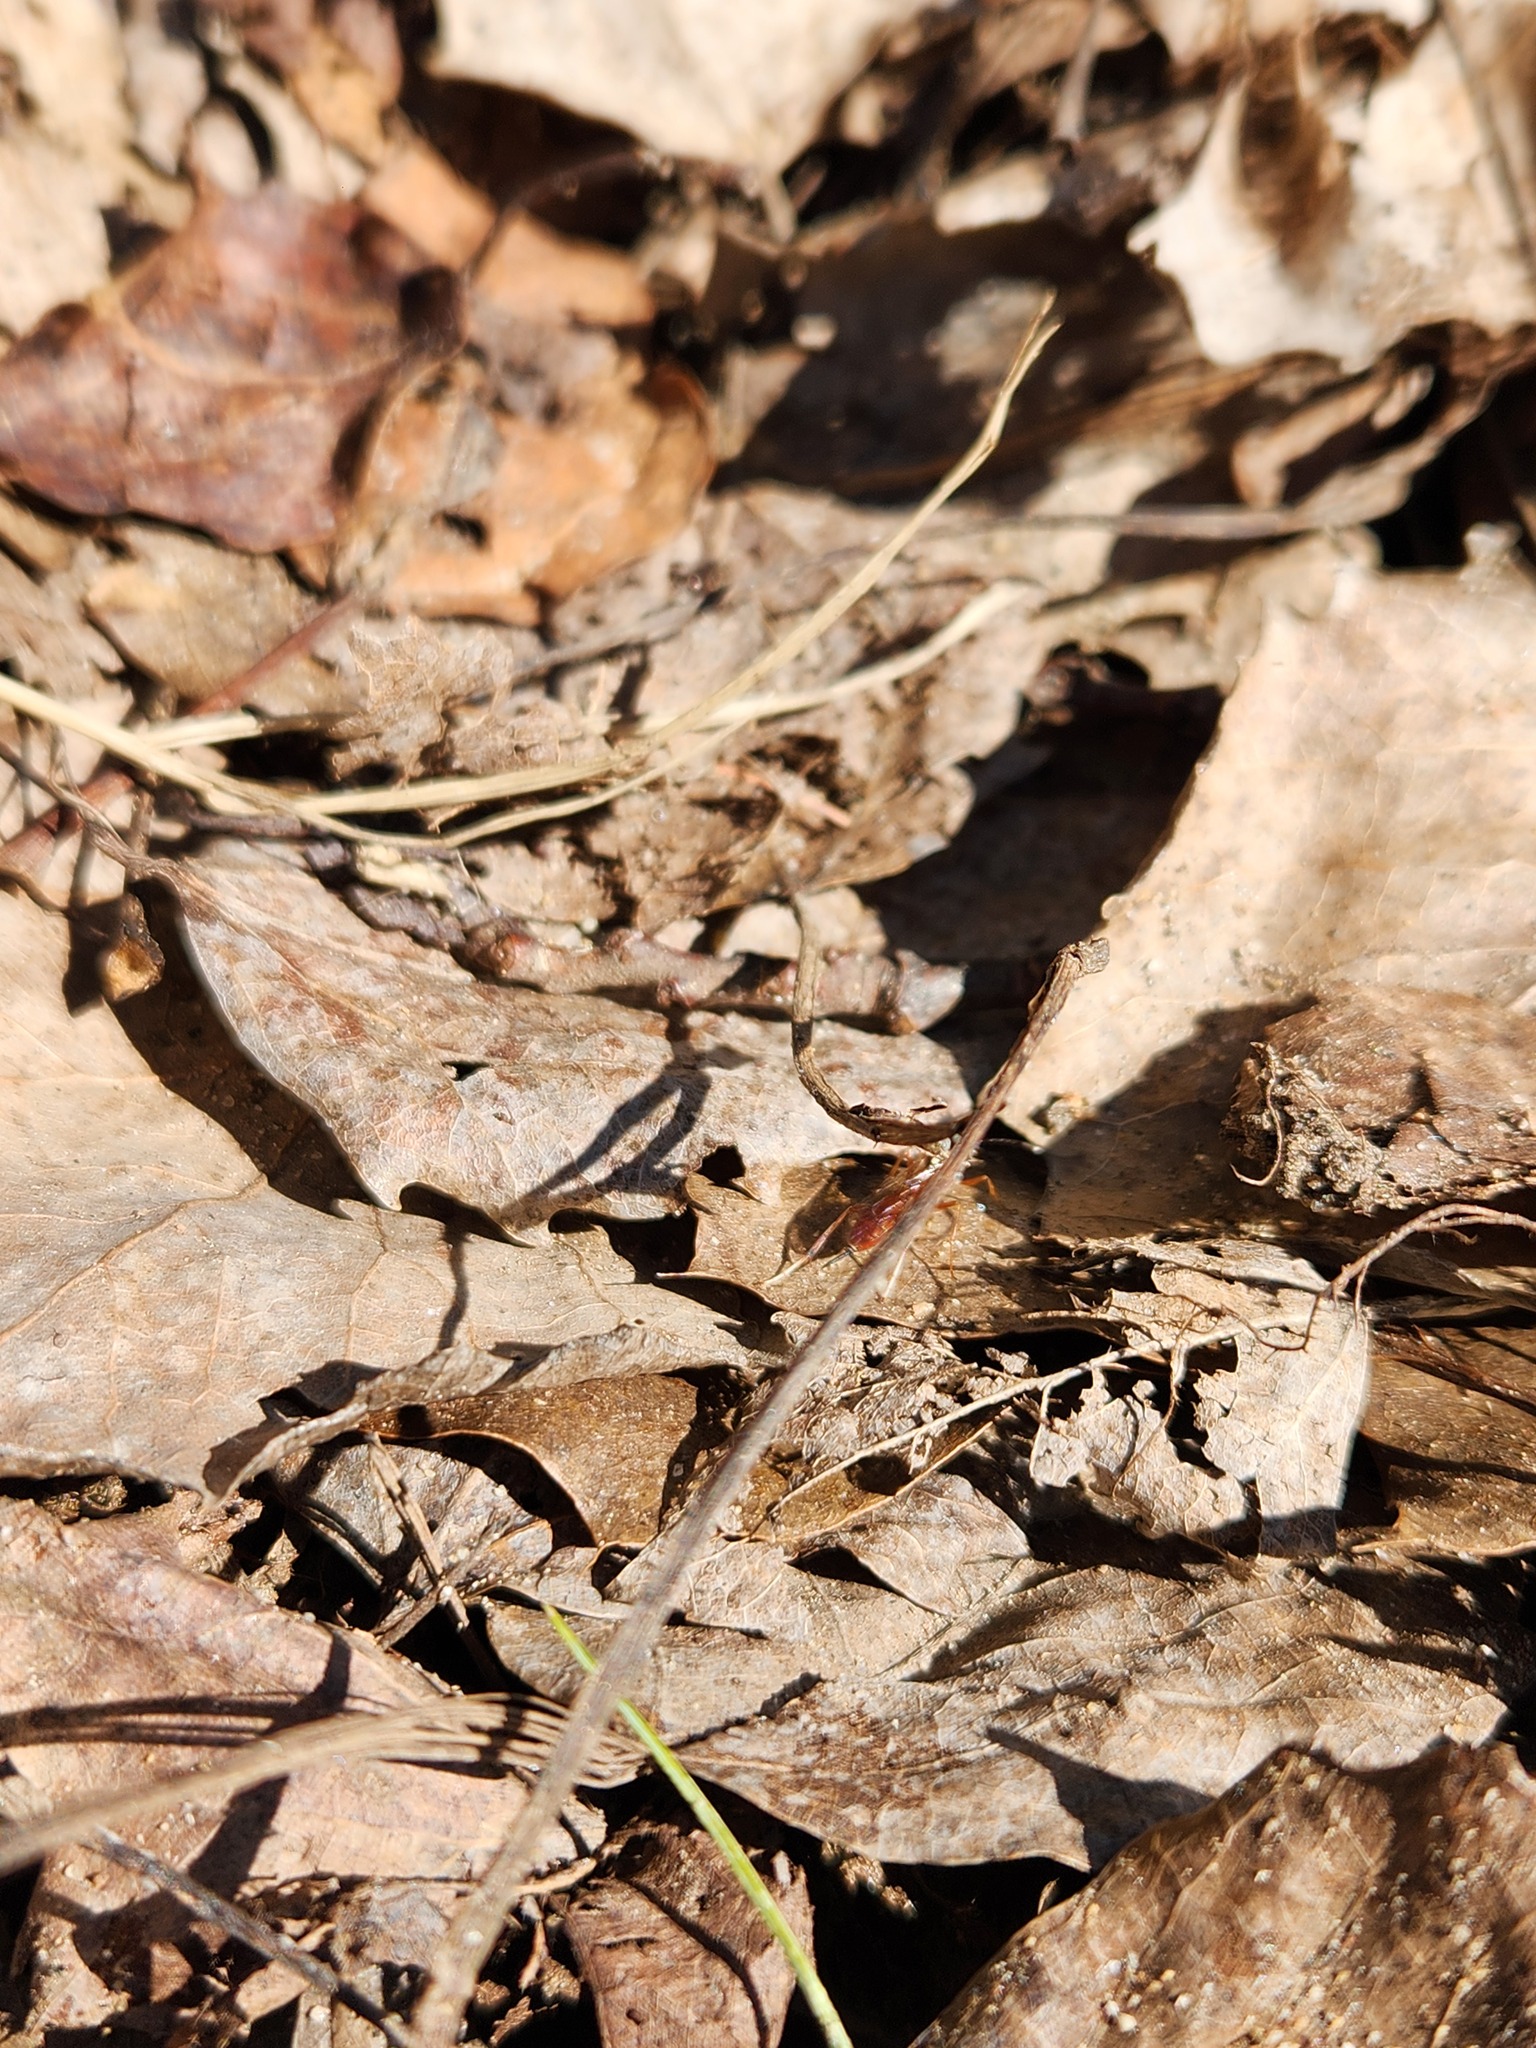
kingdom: Animalia
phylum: Arthropoda
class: Insecta
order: Hymenoptera
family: Ichneumonidae
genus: Ischnus
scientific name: Ischnus inquisitorius
